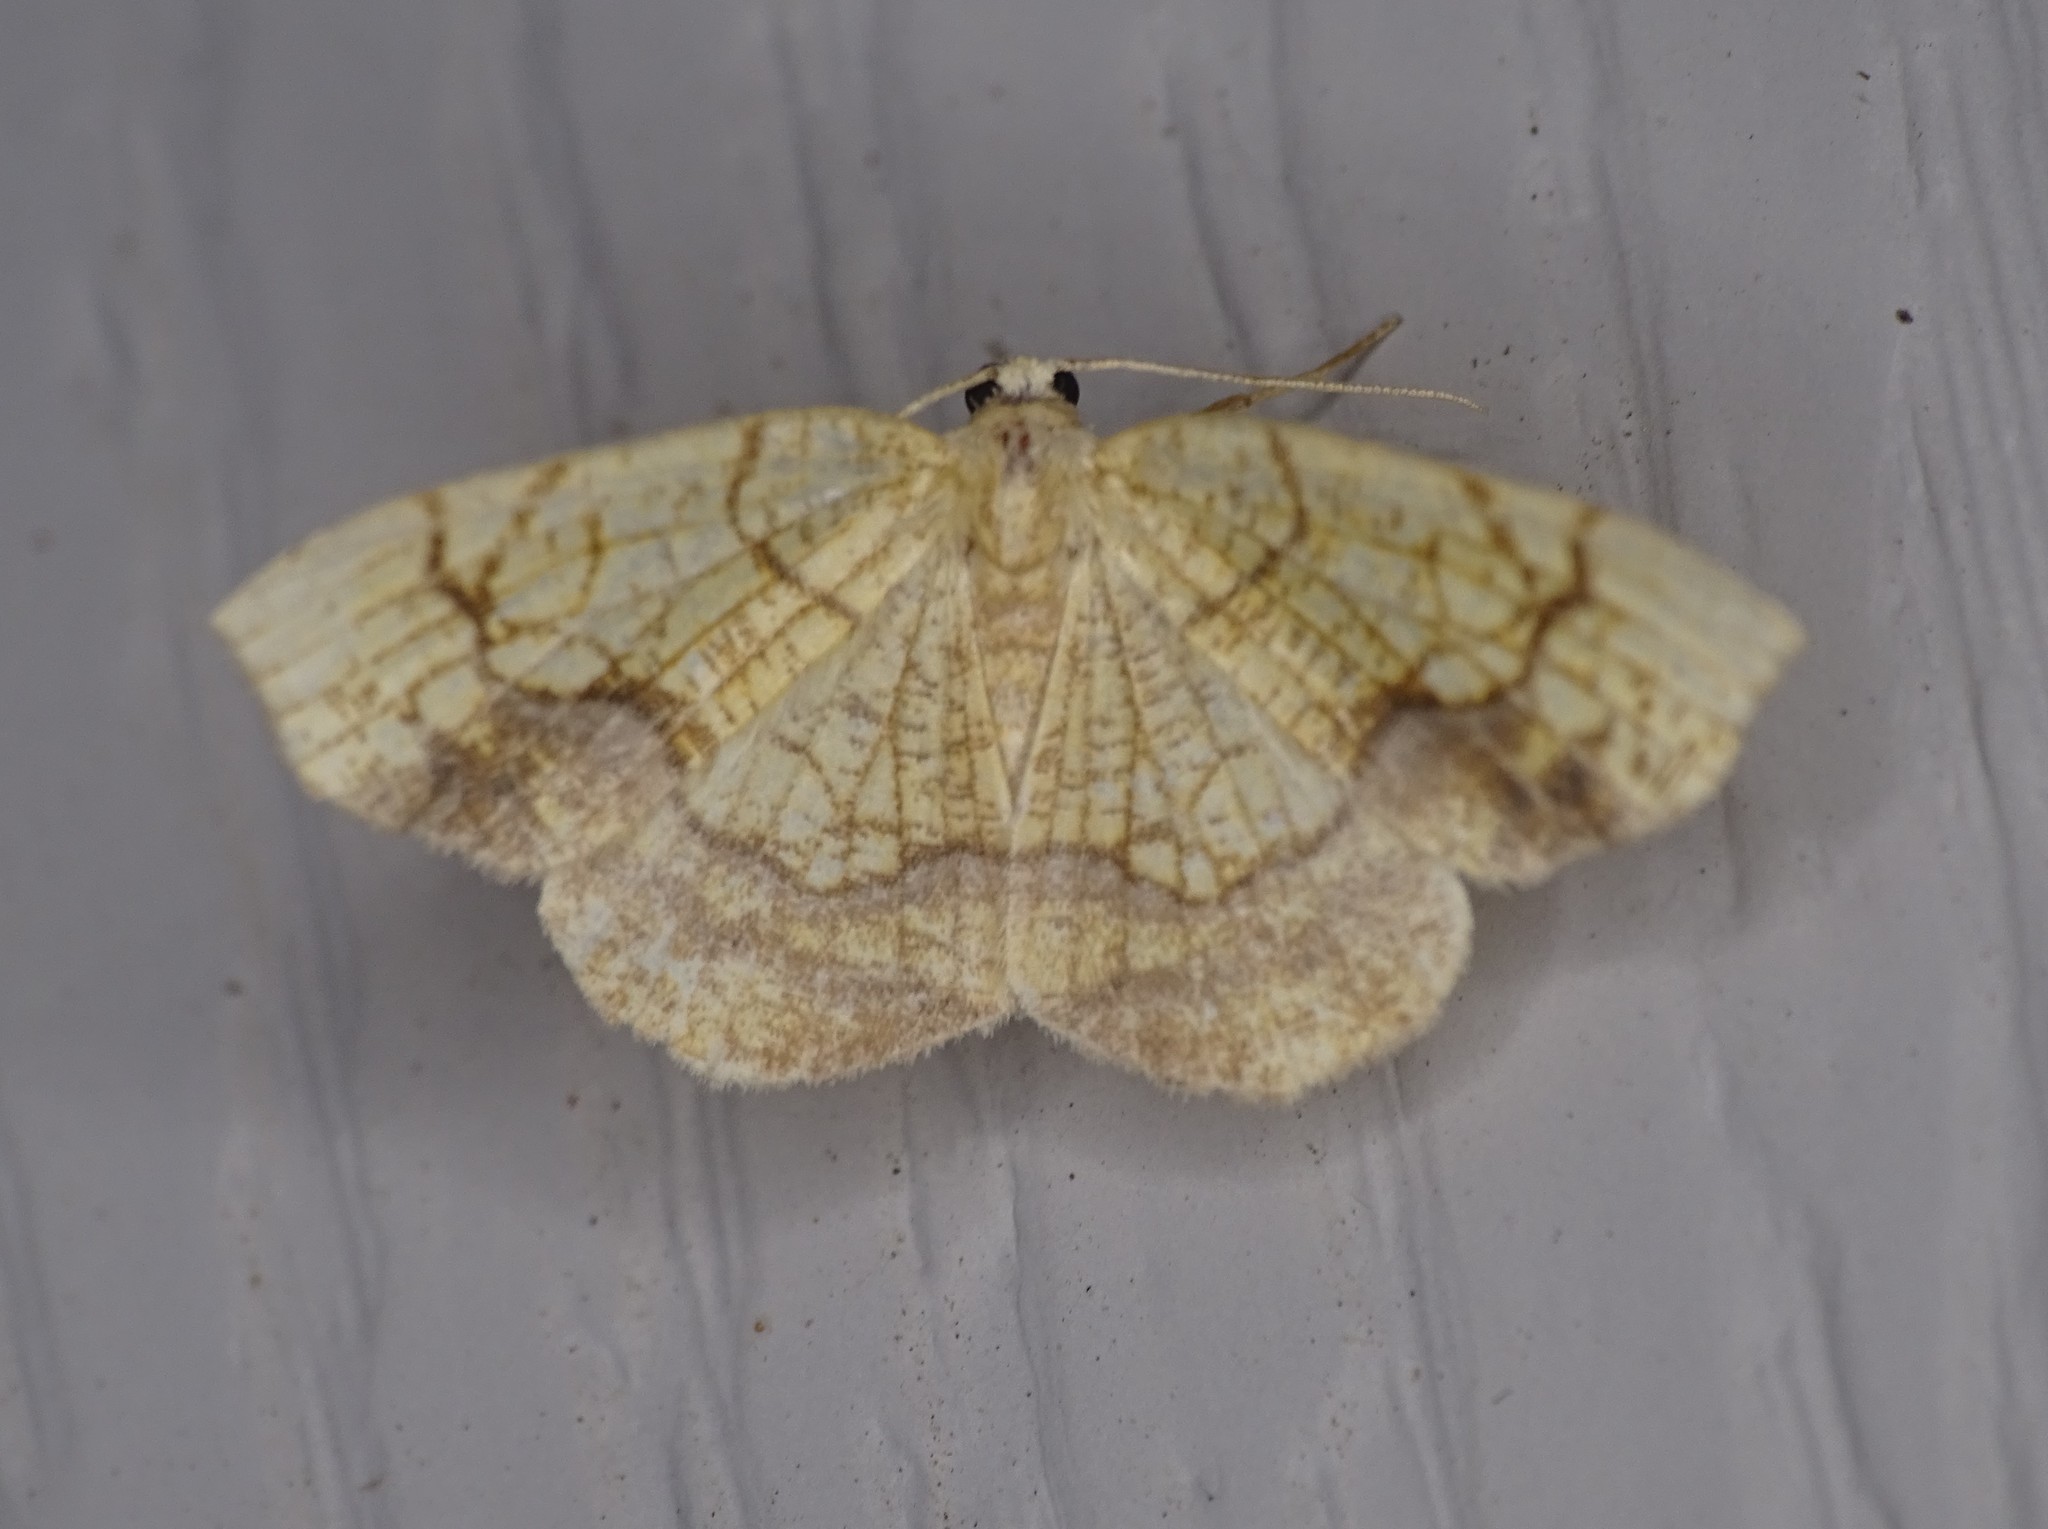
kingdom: Animalia
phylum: Arthropoda
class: Insecta
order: Lepidoptera
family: Geometridae
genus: Nematocampa
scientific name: Nematocampa resistaria
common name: Horned spanworm moth
